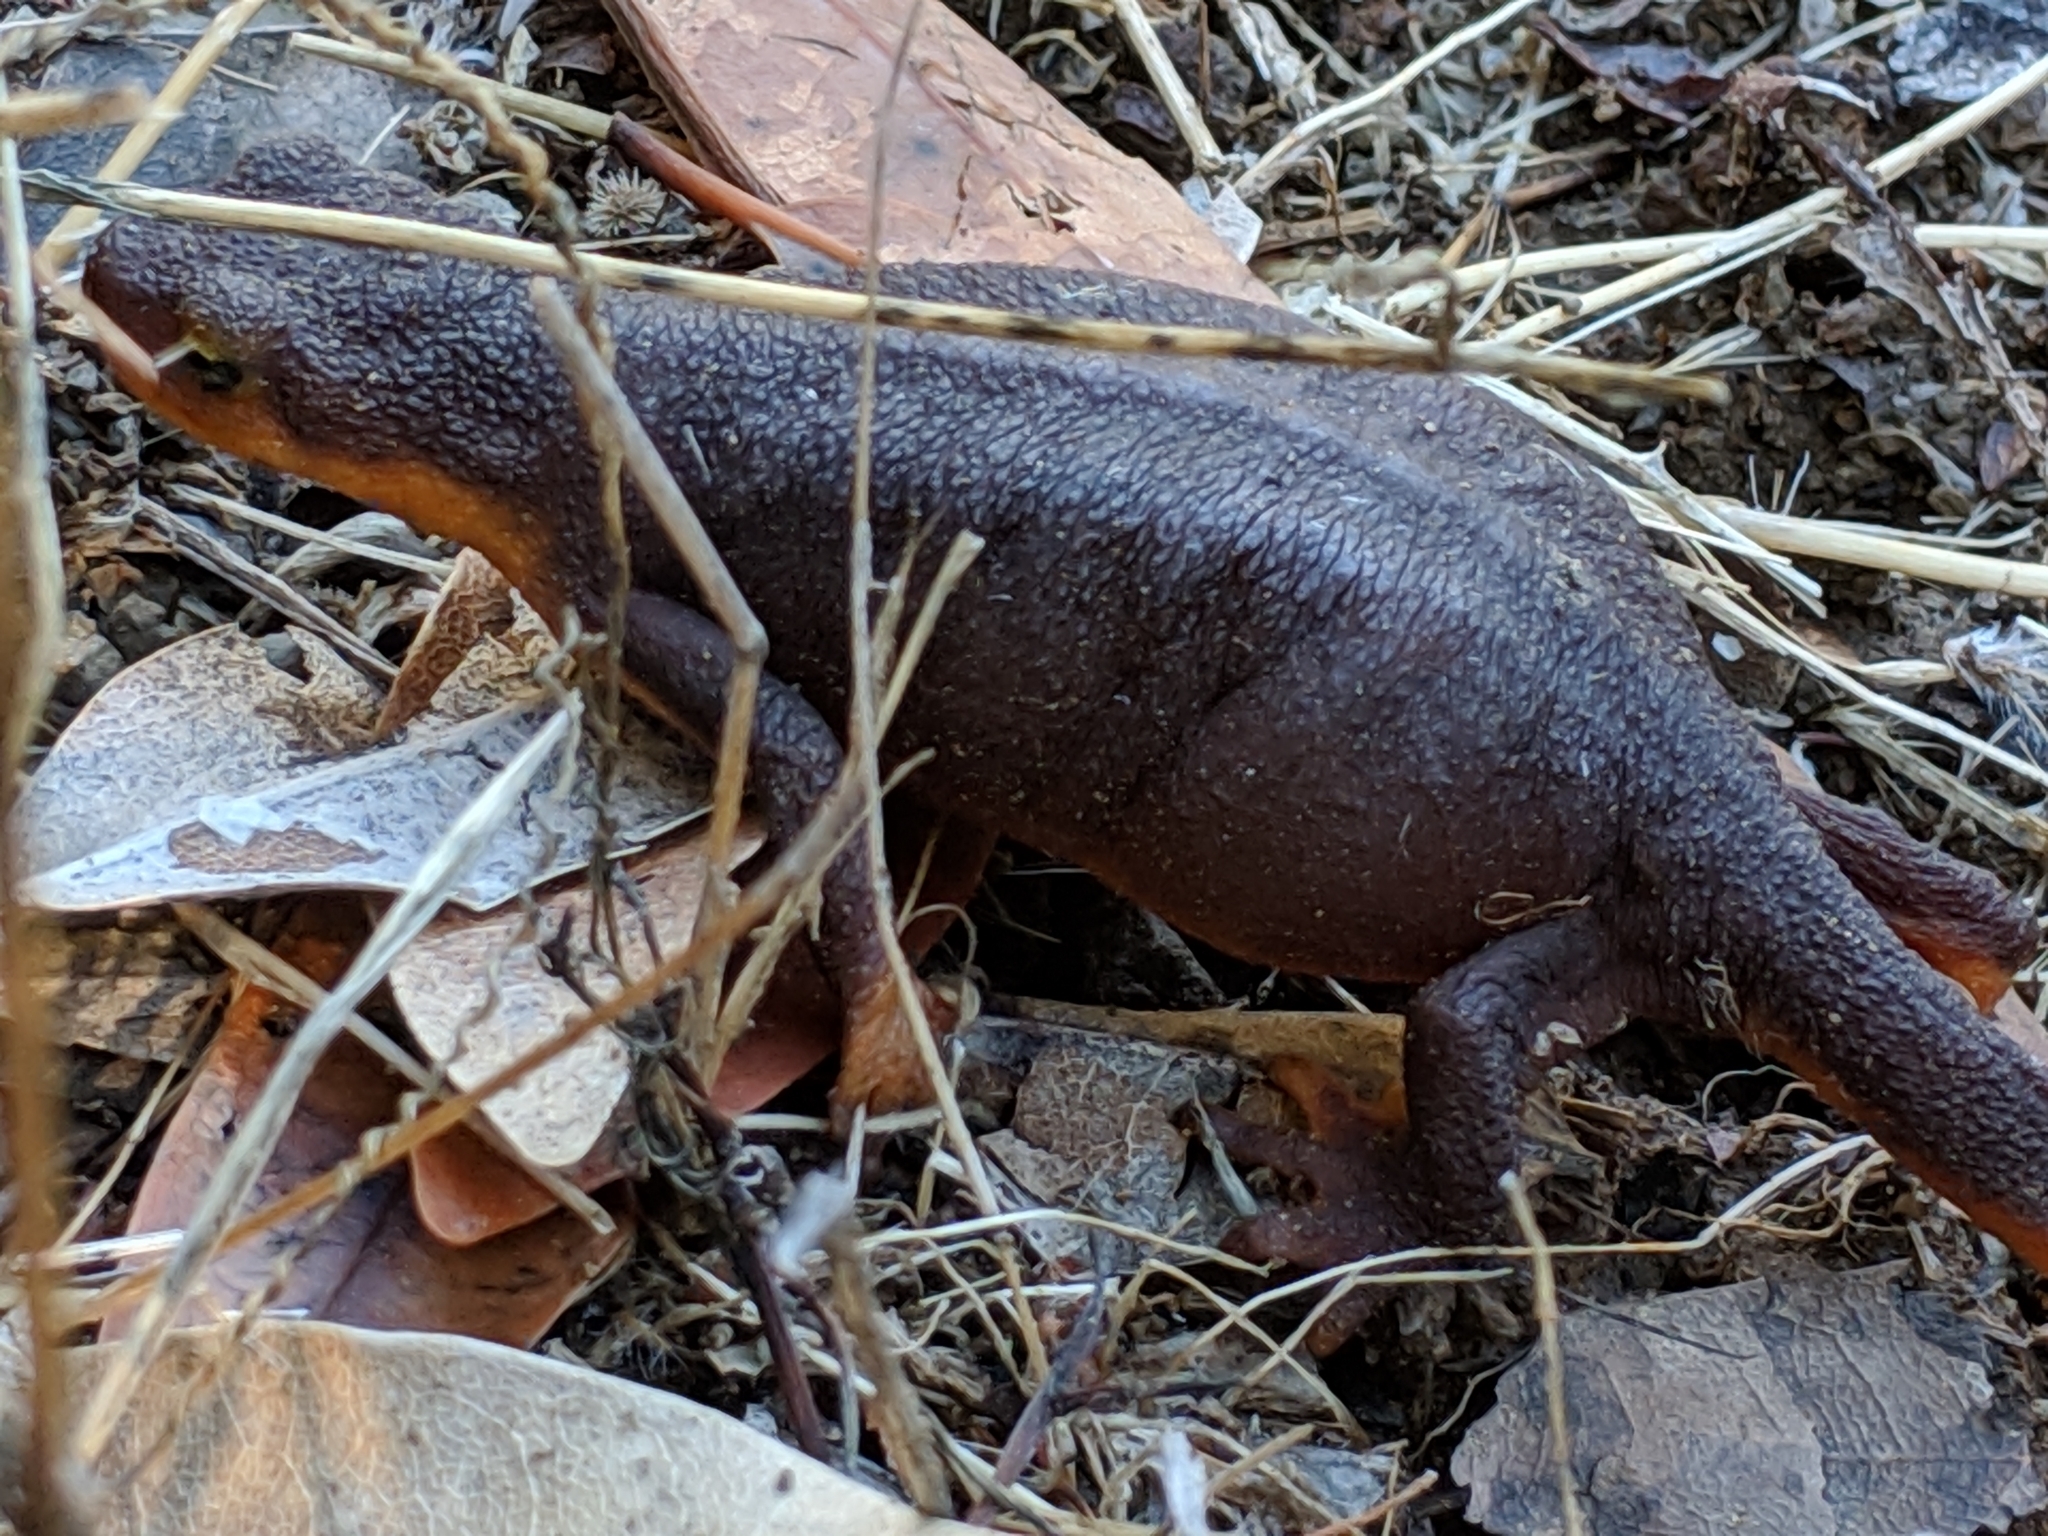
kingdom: Animalia
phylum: Chordata
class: Amphibia
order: Caudata
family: Salamandridae
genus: Taricha
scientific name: Taricha torosa
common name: California newt
